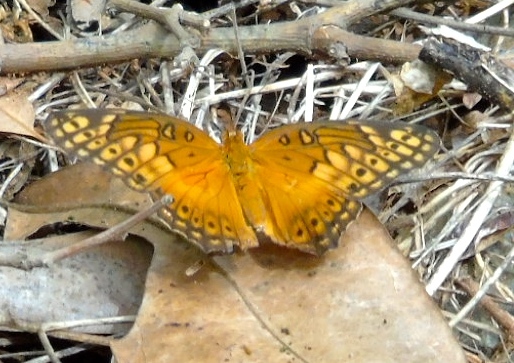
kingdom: Animalia
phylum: Arthropoda
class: Insecta
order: Lepidoptera
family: Nymphalidae
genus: Euptoieta
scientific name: Euptoieta hegesia
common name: Mexican fritillary
